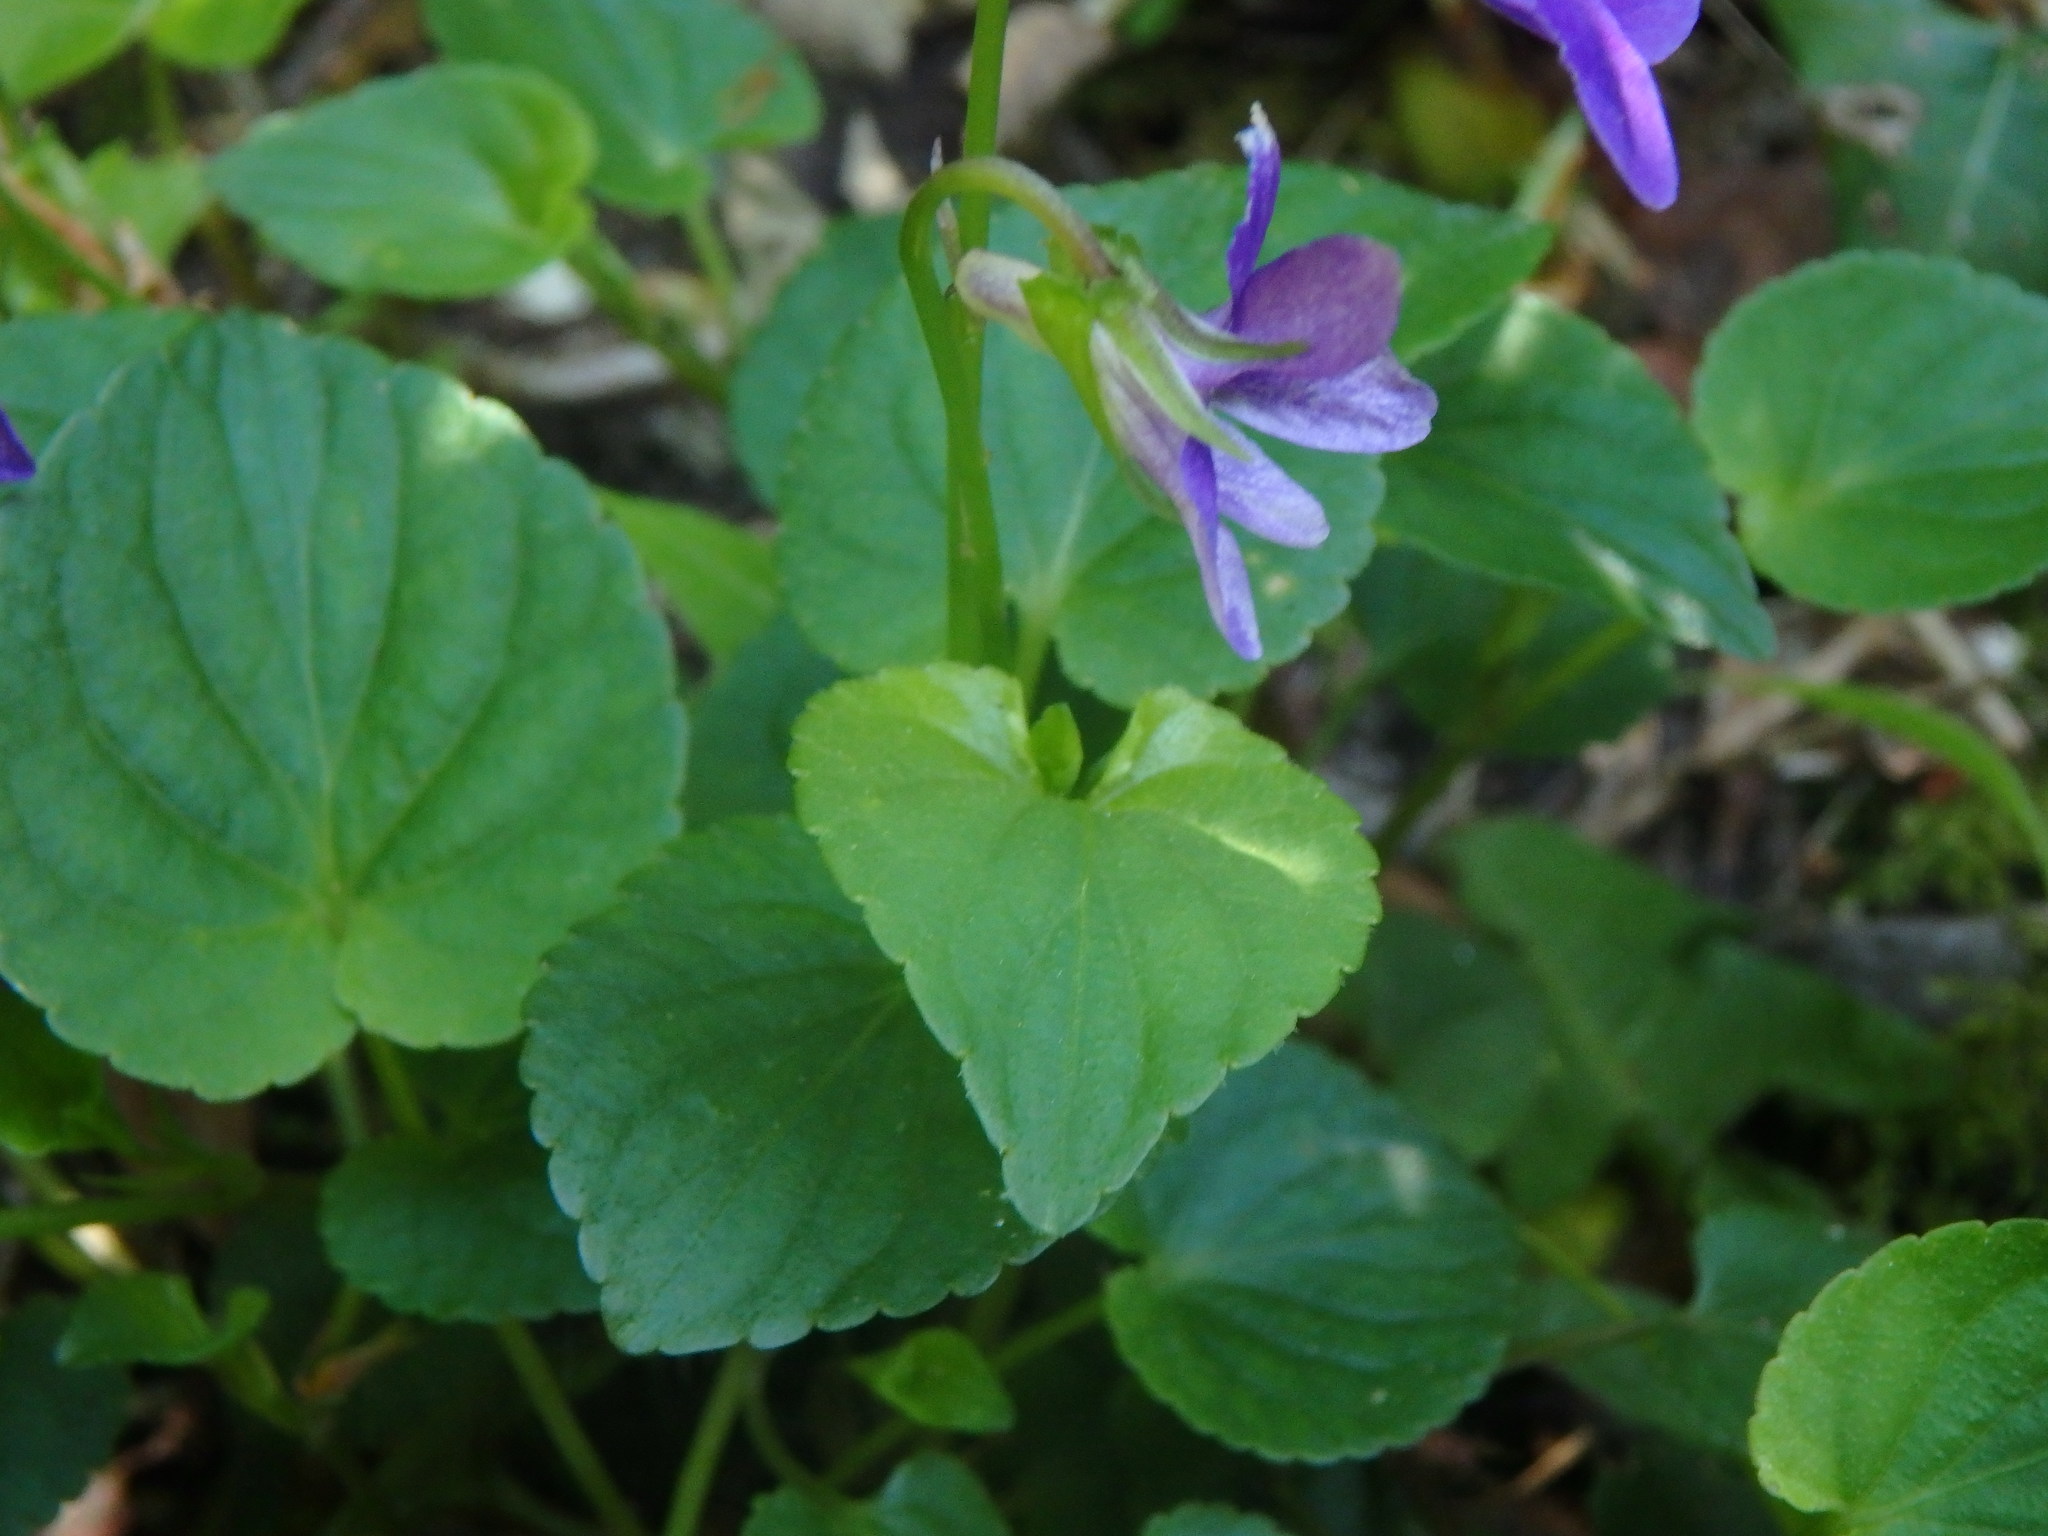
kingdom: Plantae
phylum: Tracheophyta
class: Magnoliopsida
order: Malpighiales
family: Violaceae
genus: Viola
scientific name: Viola riviniana
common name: Common dog-violet
